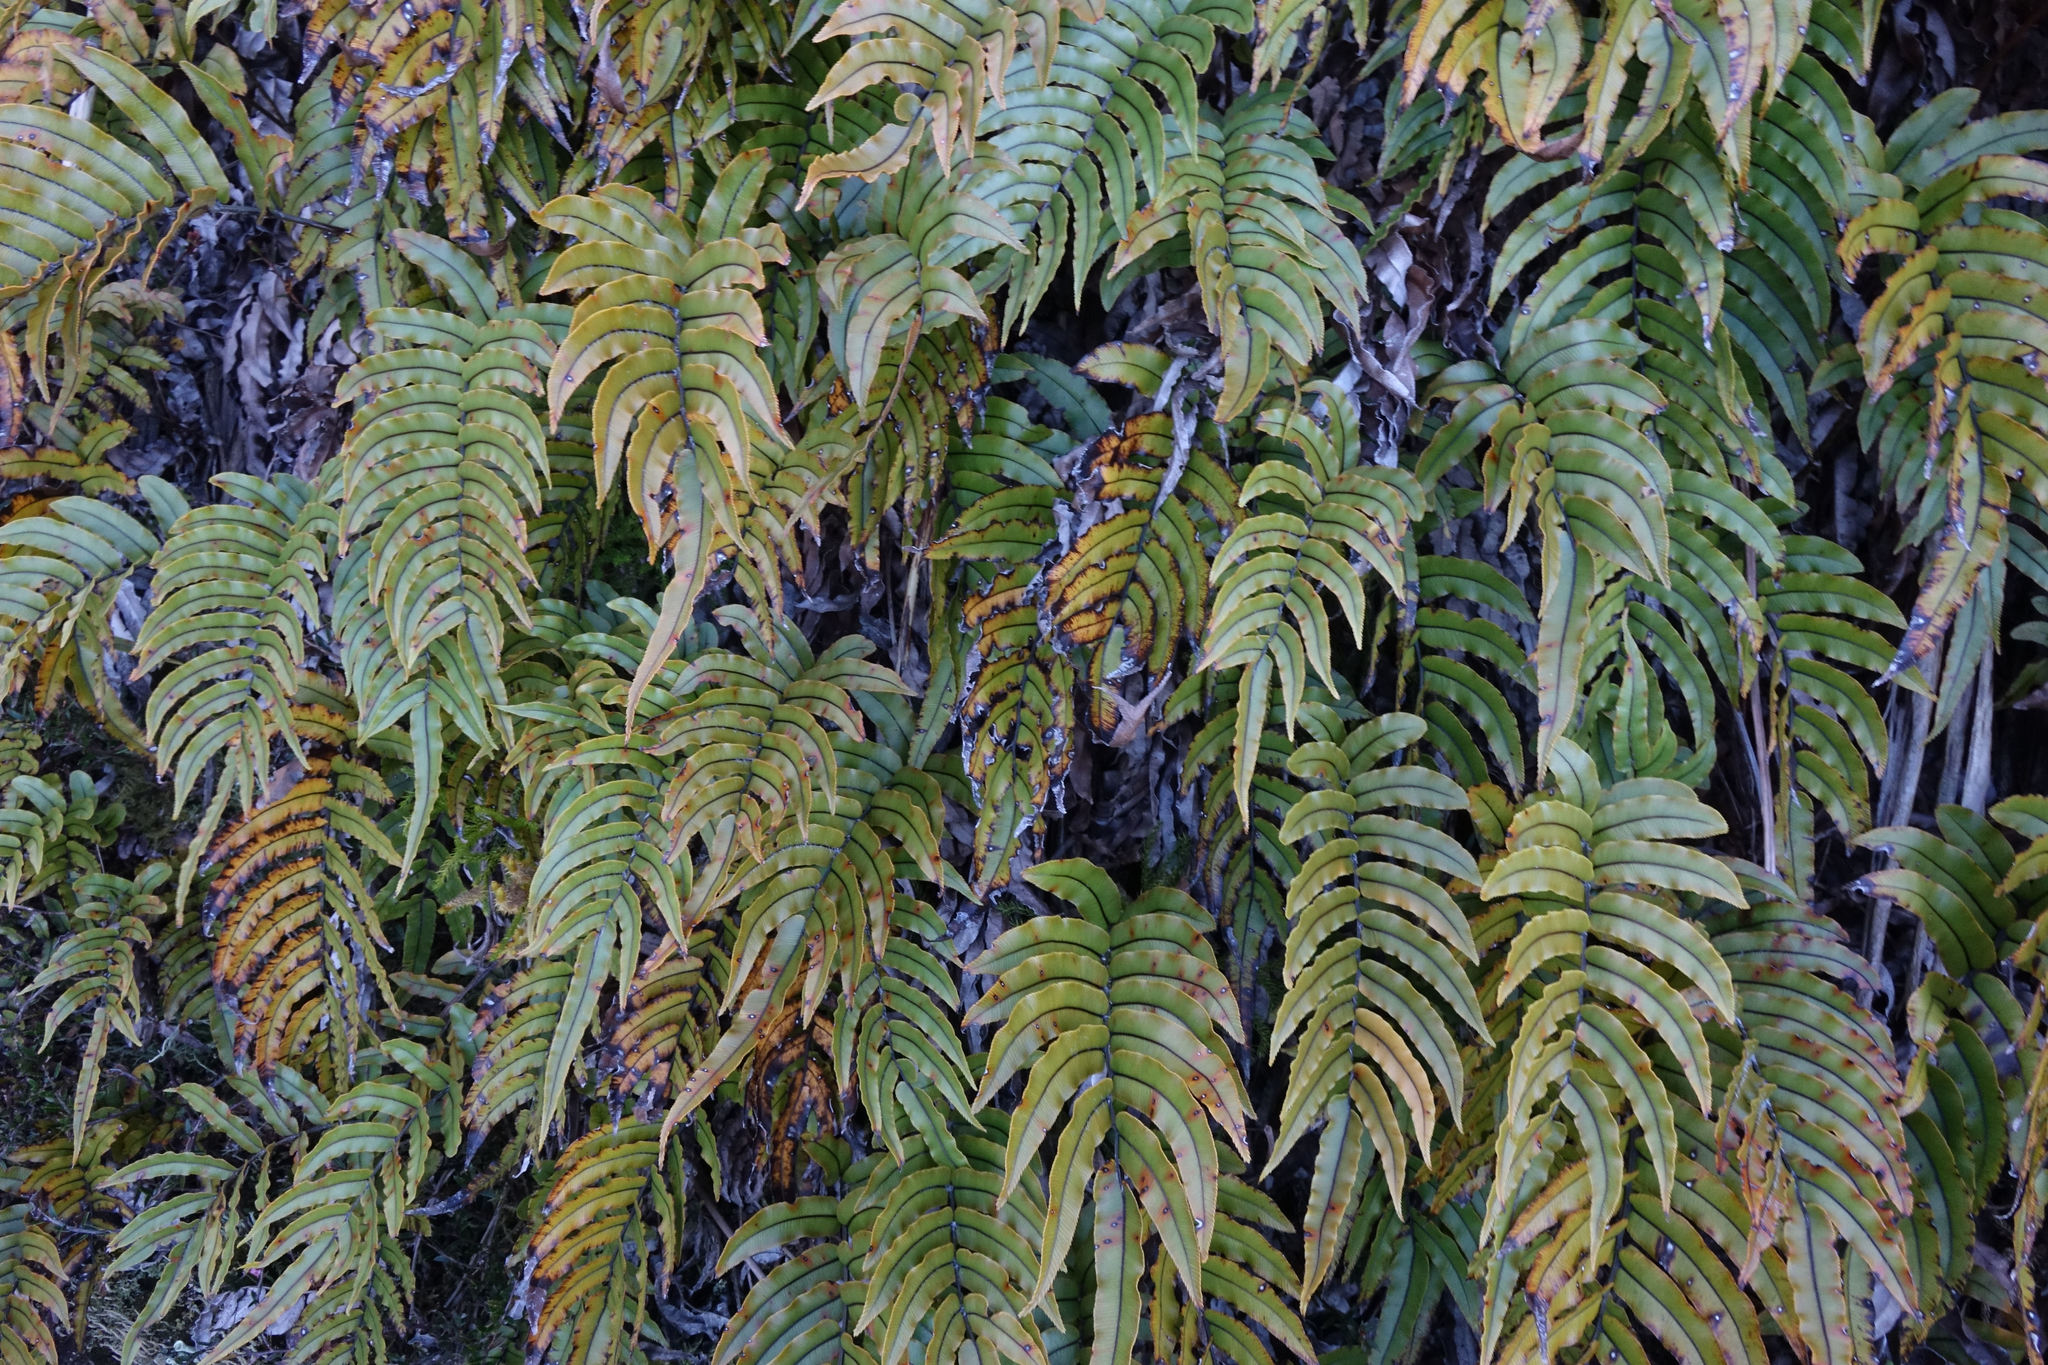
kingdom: Plantae
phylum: Tracheophyta
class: Polypodiopsida
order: Polypodiales
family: Blechnaceae
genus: Parablechnum
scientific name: Parablechnum montanum
